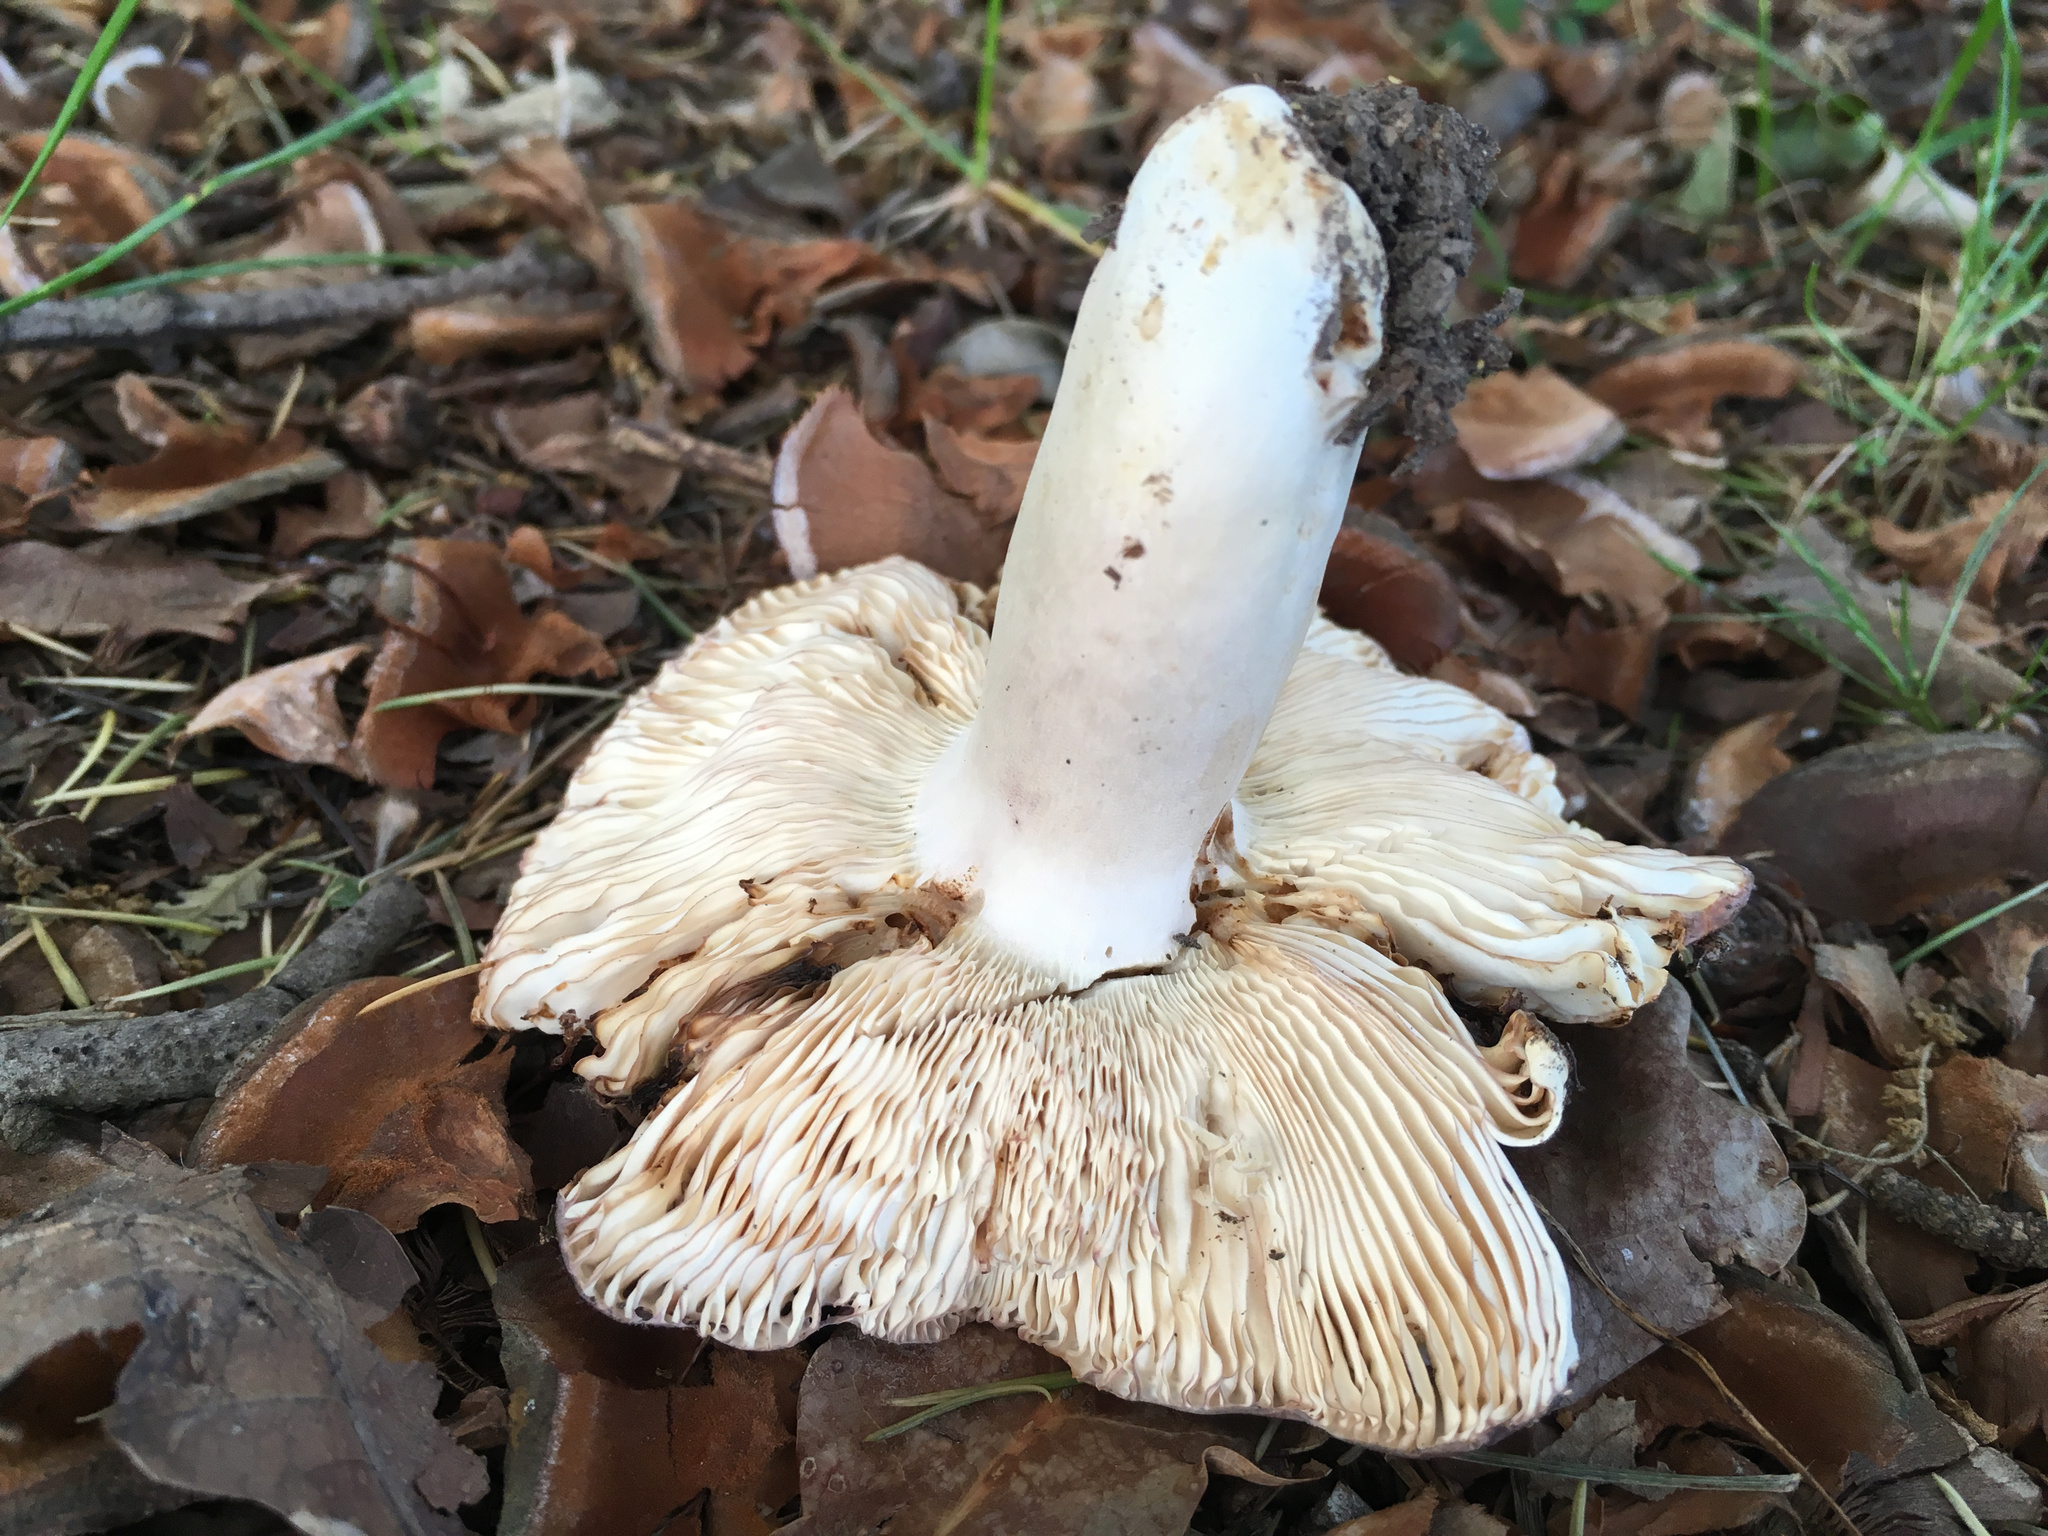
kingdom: Fungi
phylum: Basidiomycota
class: Agaricomycetes
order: Russulales
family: Russulaceae
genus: Russula
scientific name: Russula grisea
